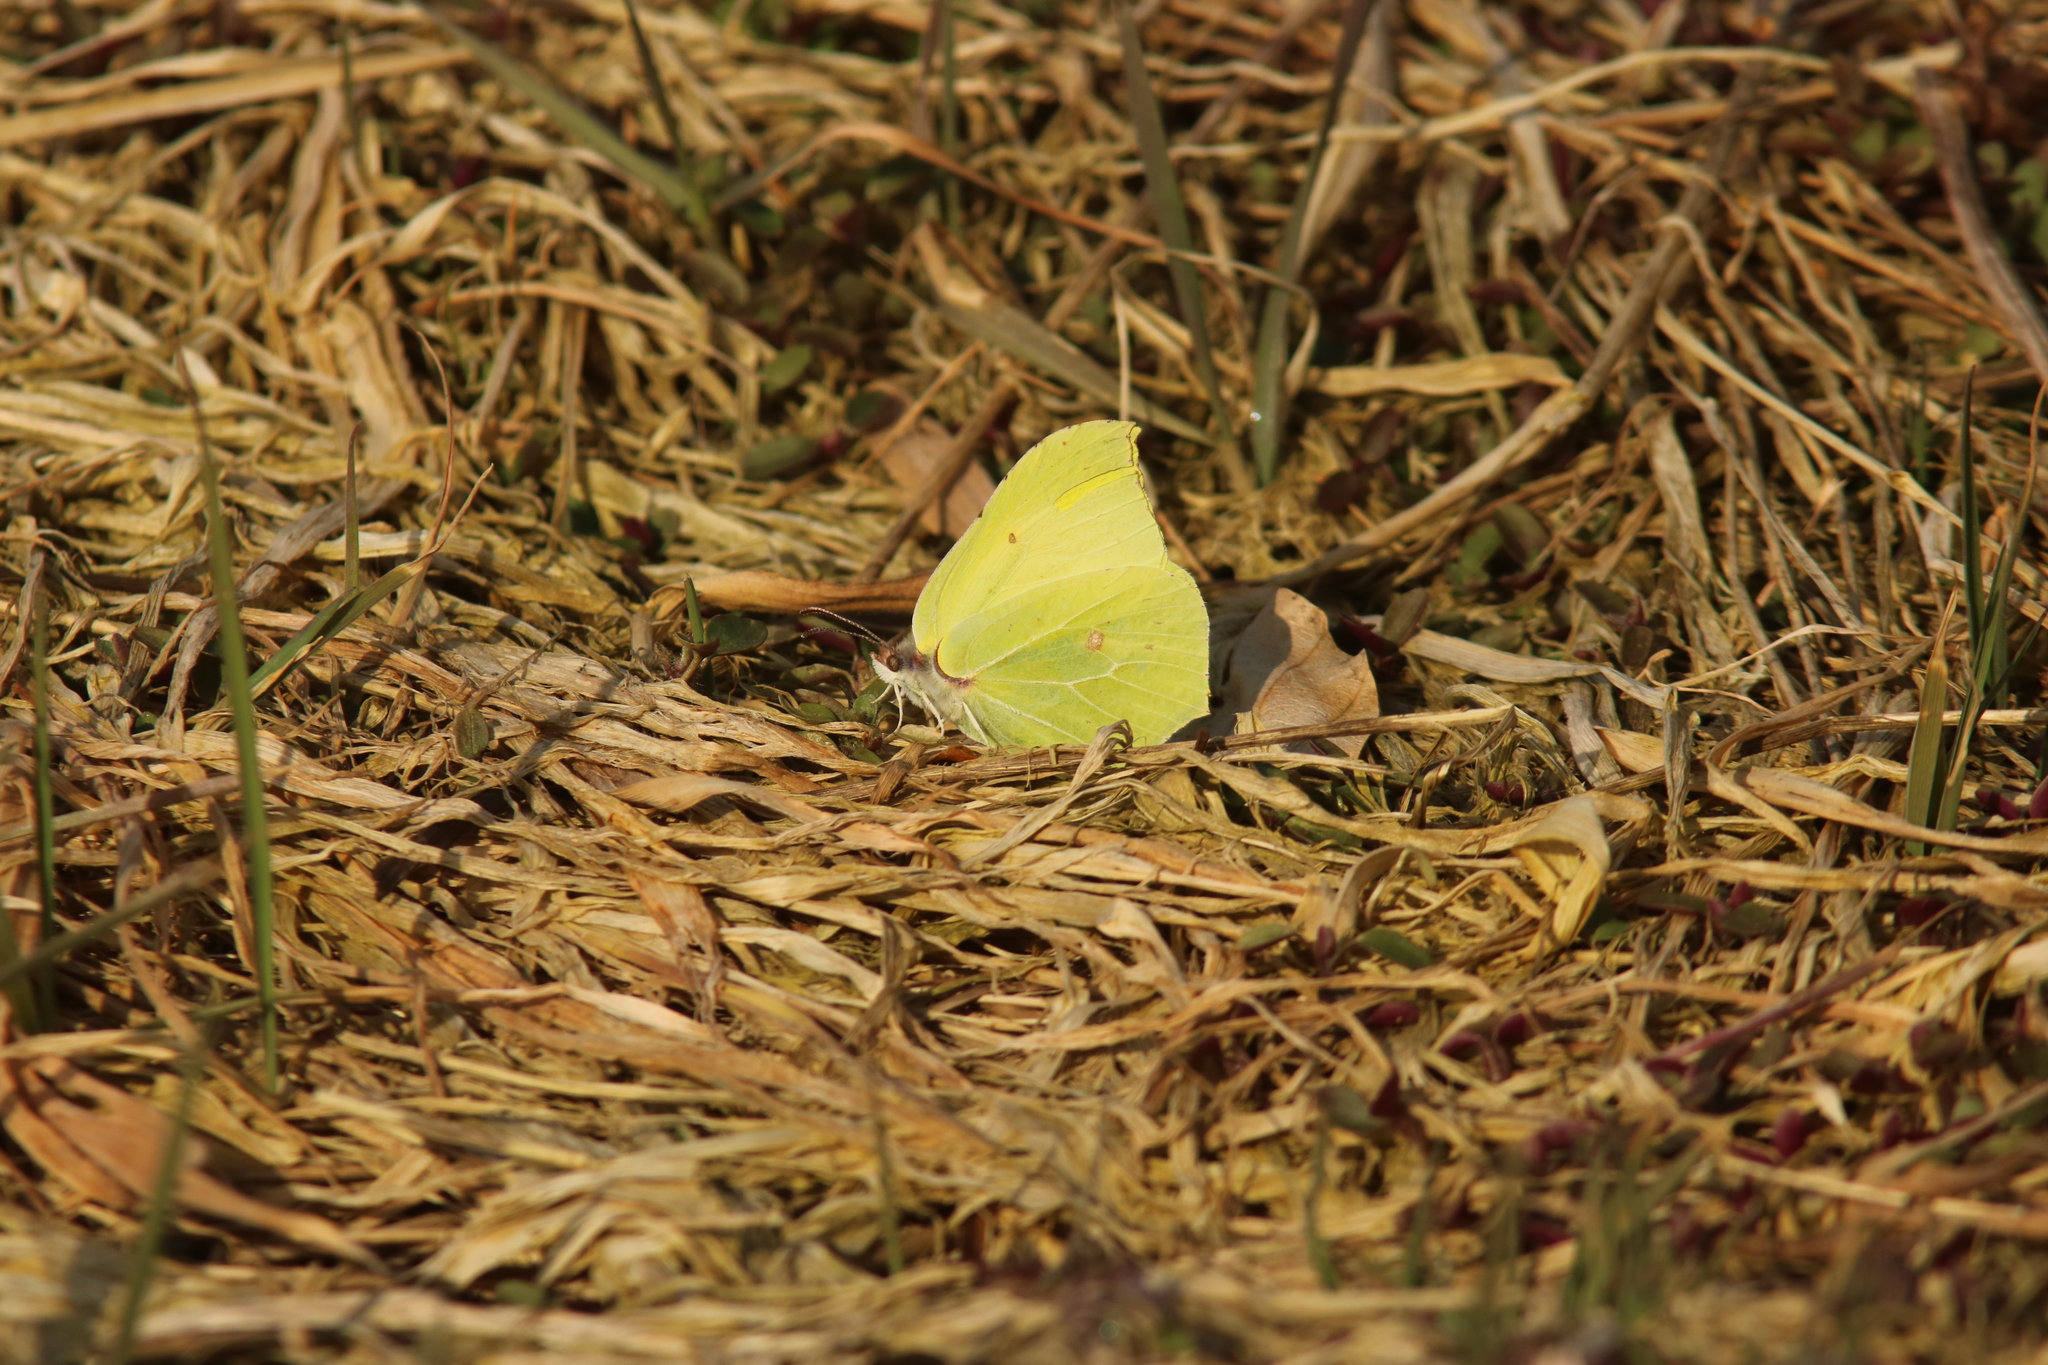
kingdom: Animalia
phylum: Arthropoda
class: Insecta
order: Lepidoptera
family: Pieridae
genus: Gonepteryx
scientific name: Gonepteryx rhamni
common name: Brimstone
